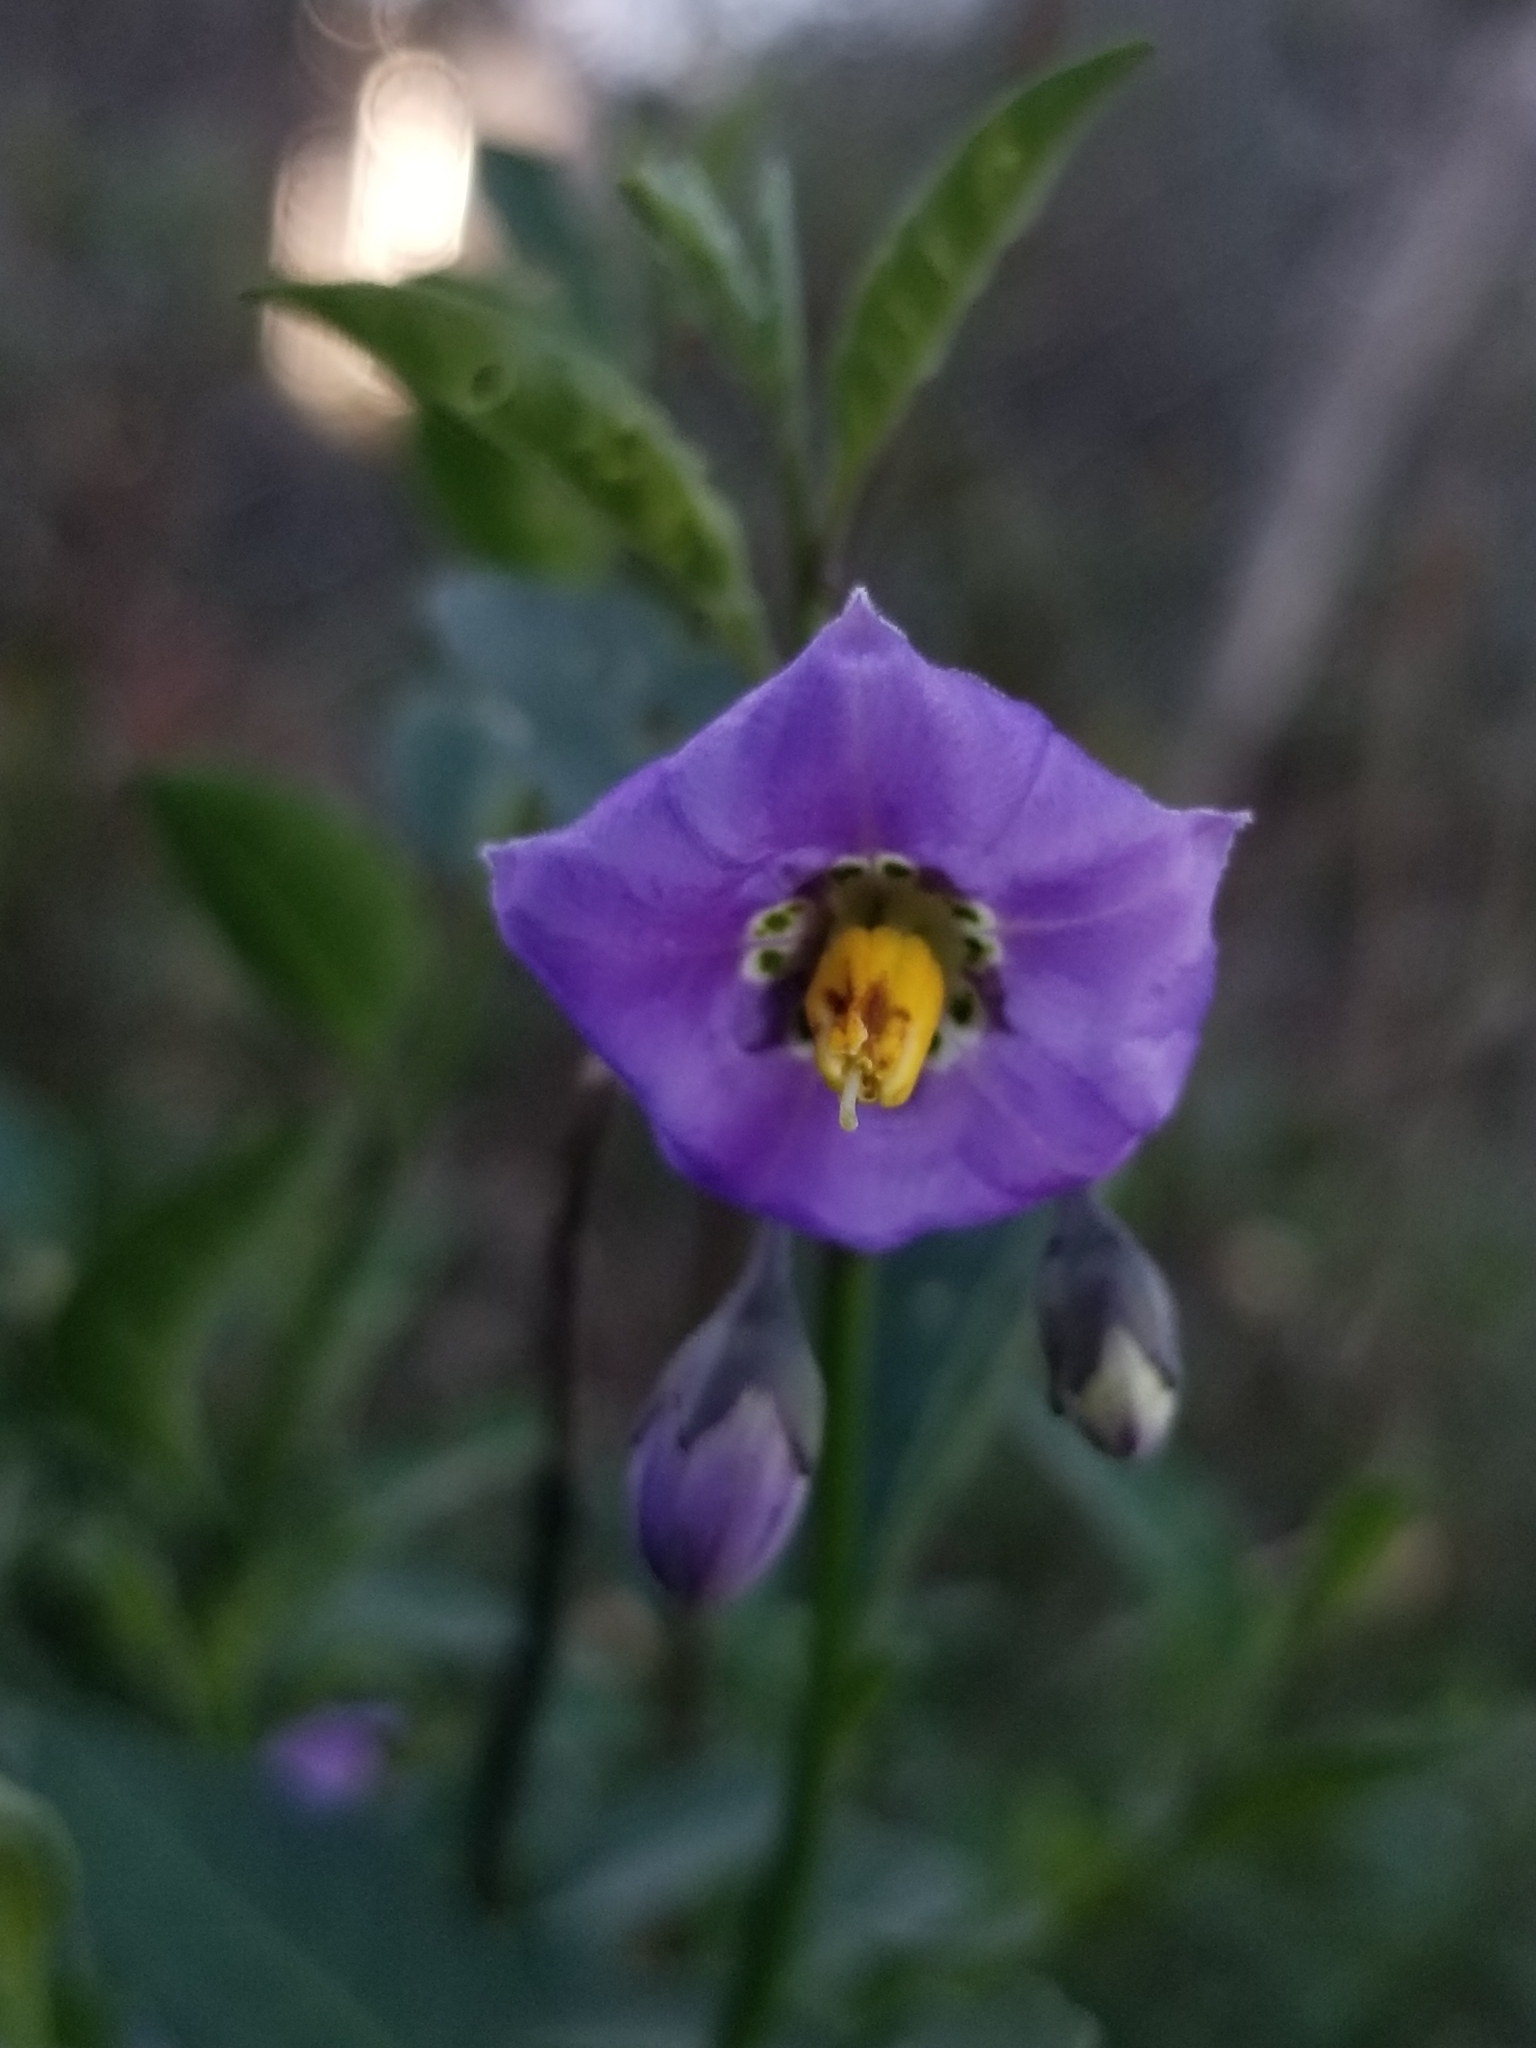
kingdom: Plantae
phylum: Tracheophyta
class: Magnoliopsida
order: Solanales
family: Solanaceae
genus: Solanum
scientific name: Solanum umbelliferum
